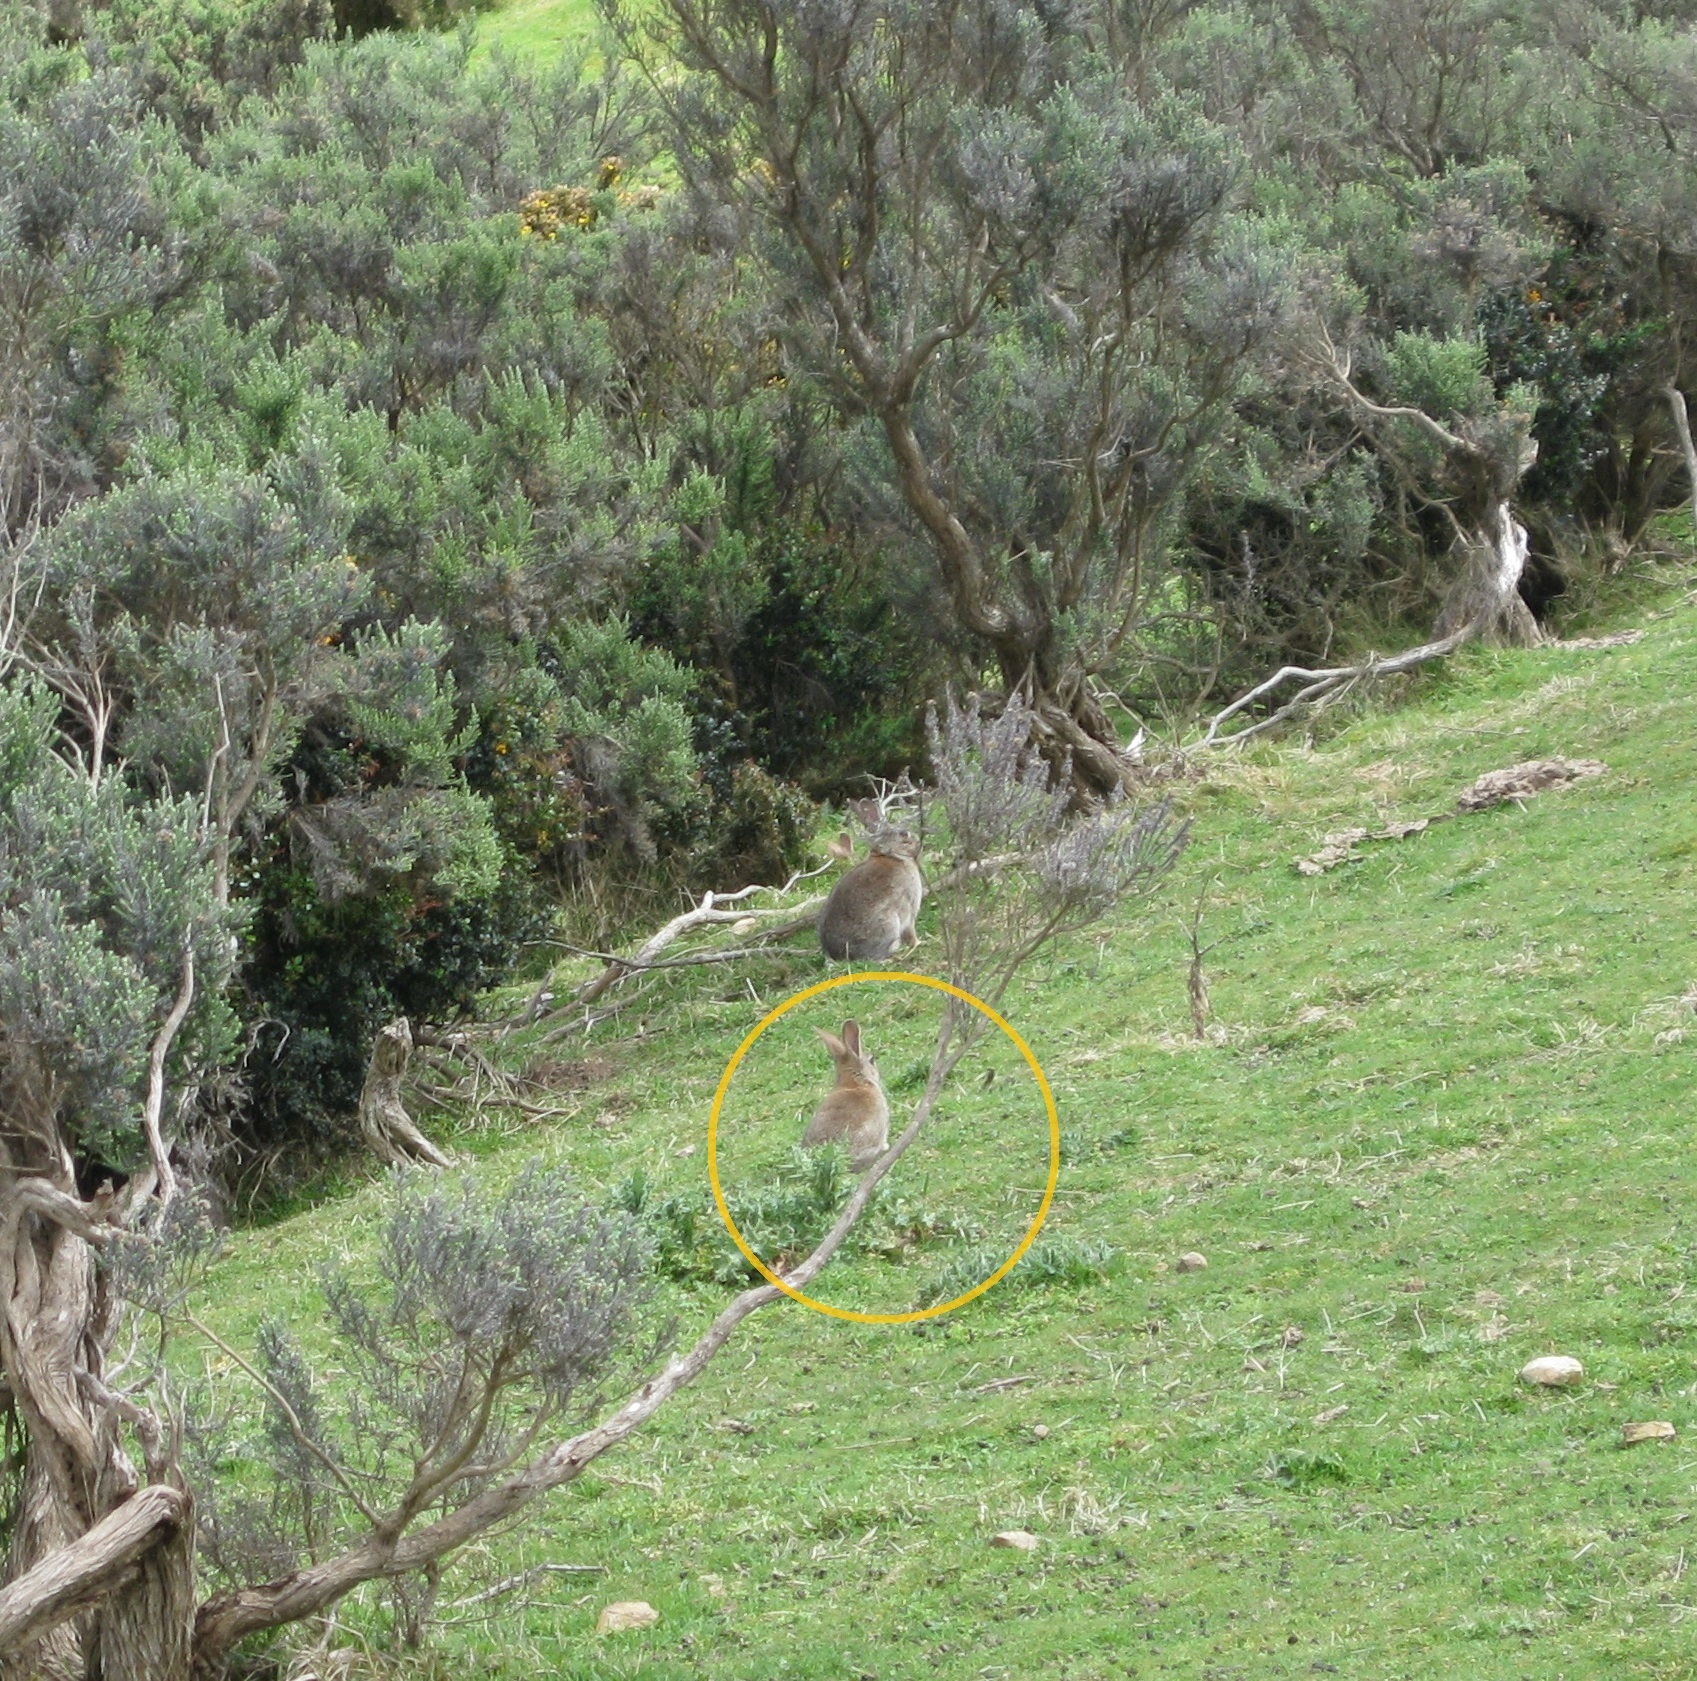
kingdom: Animalia
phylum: Chordata
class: Mammalia
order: Lagomorpha
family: Leporidae
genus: Oryctolagus
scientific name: Oryctolagus cuniculus
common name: European rabbit
